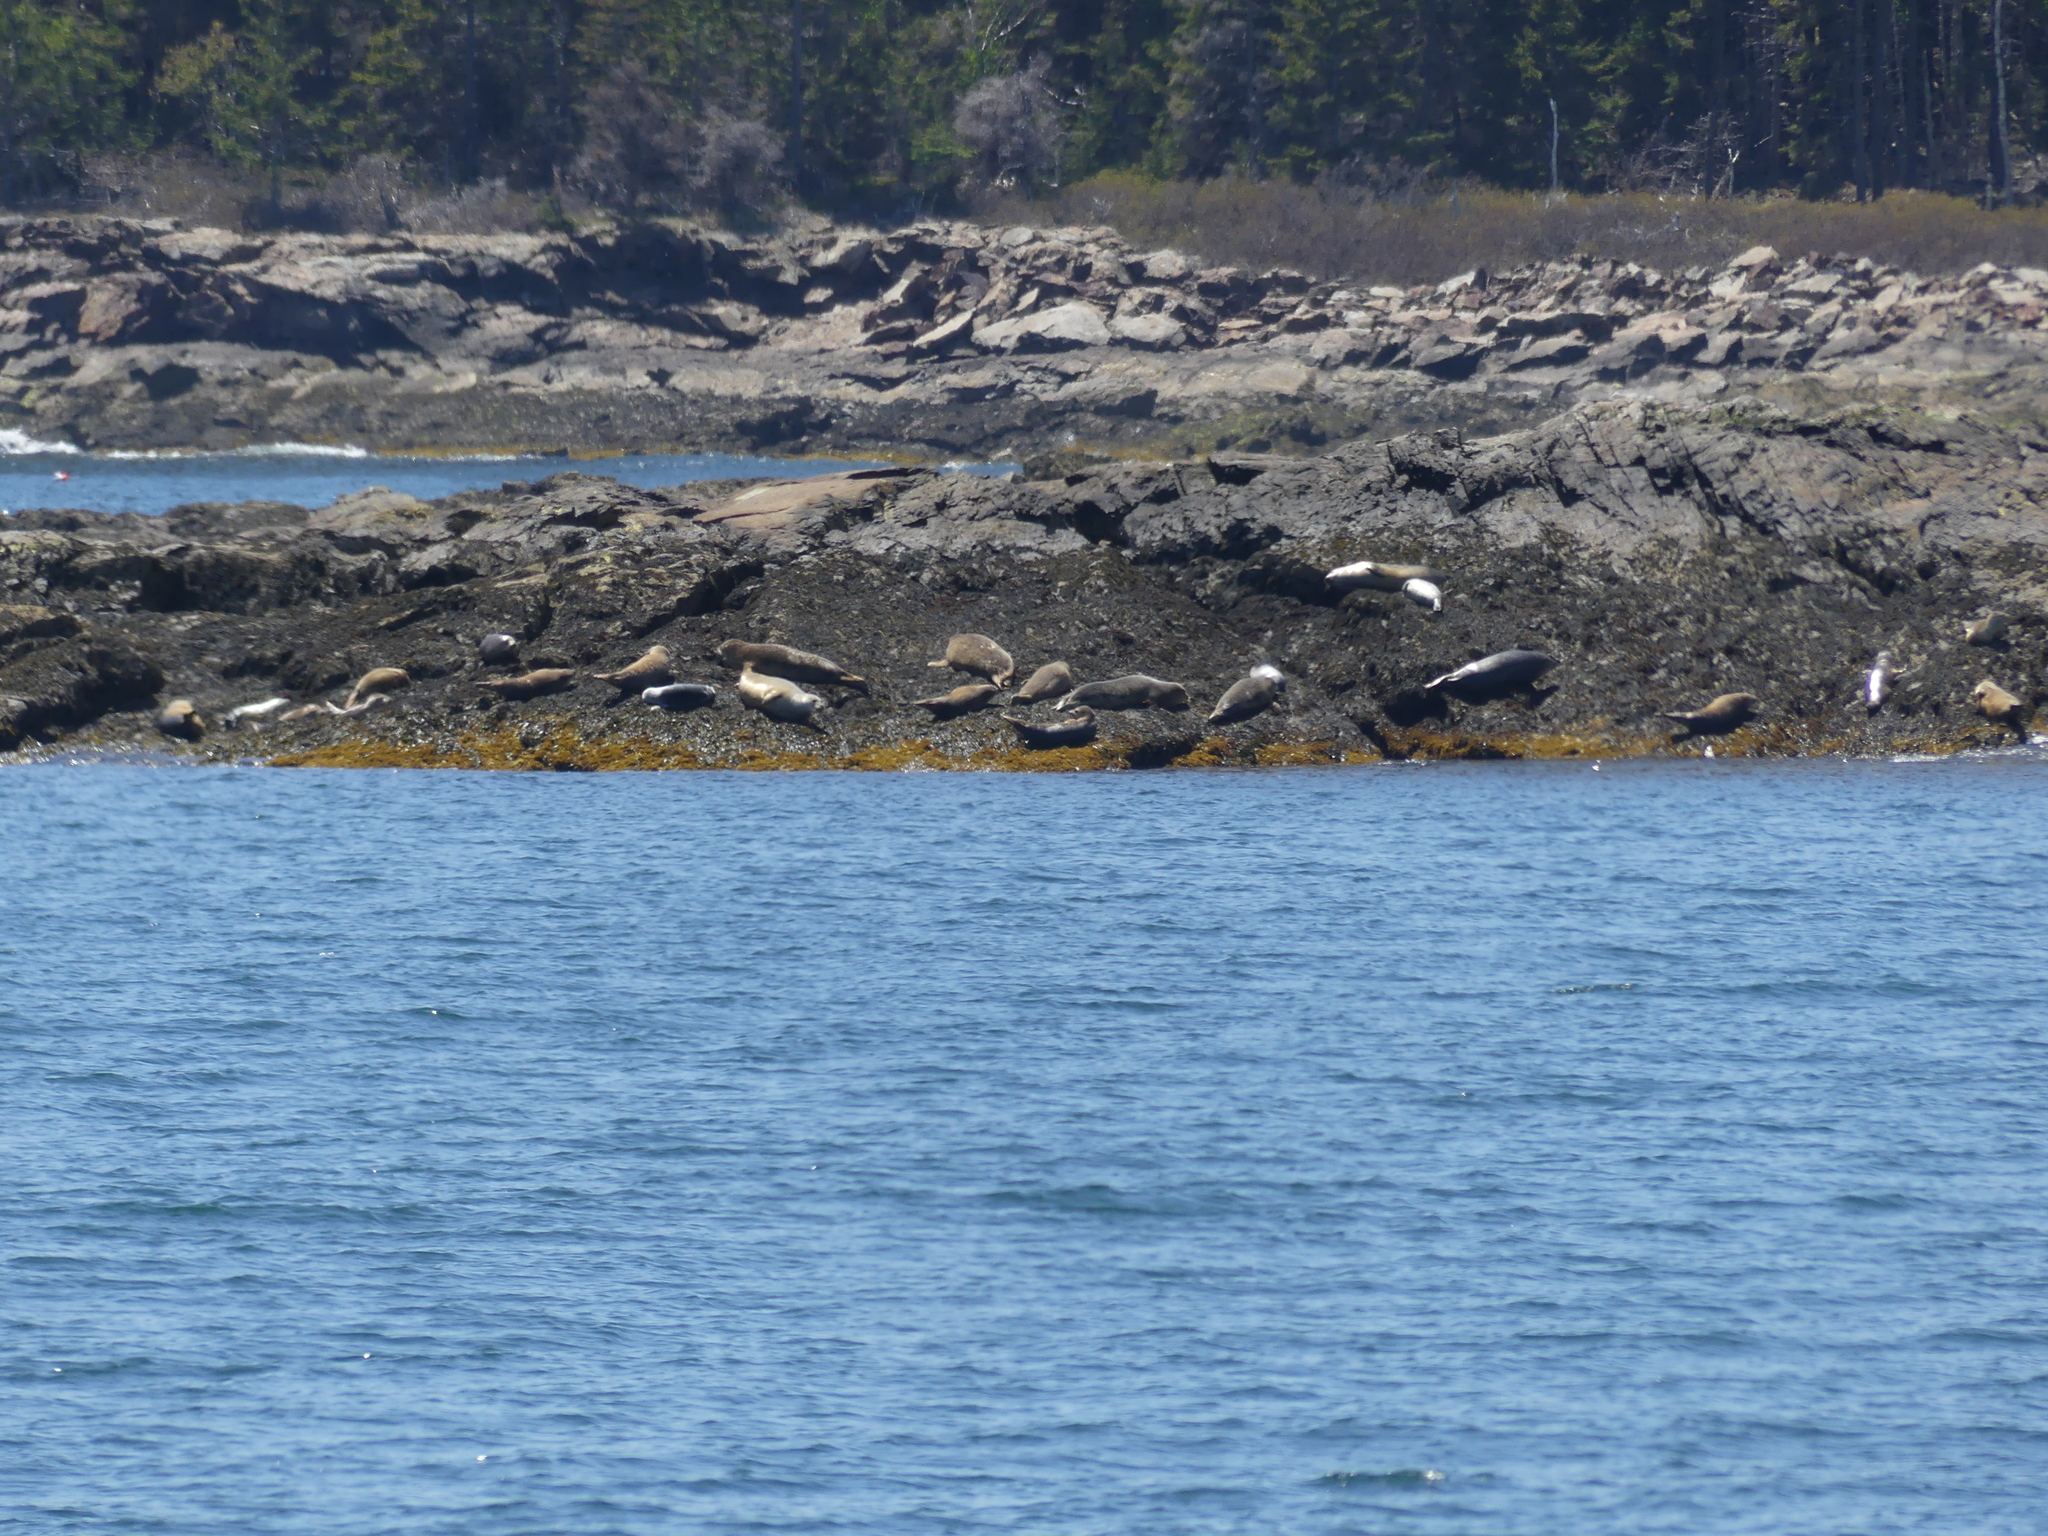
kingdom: Animalia
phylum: Chordata
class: Mammalia
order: Carnivora
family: Phocidae
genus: Phoca
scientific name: Phoca vitulina
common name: Harbor seal
